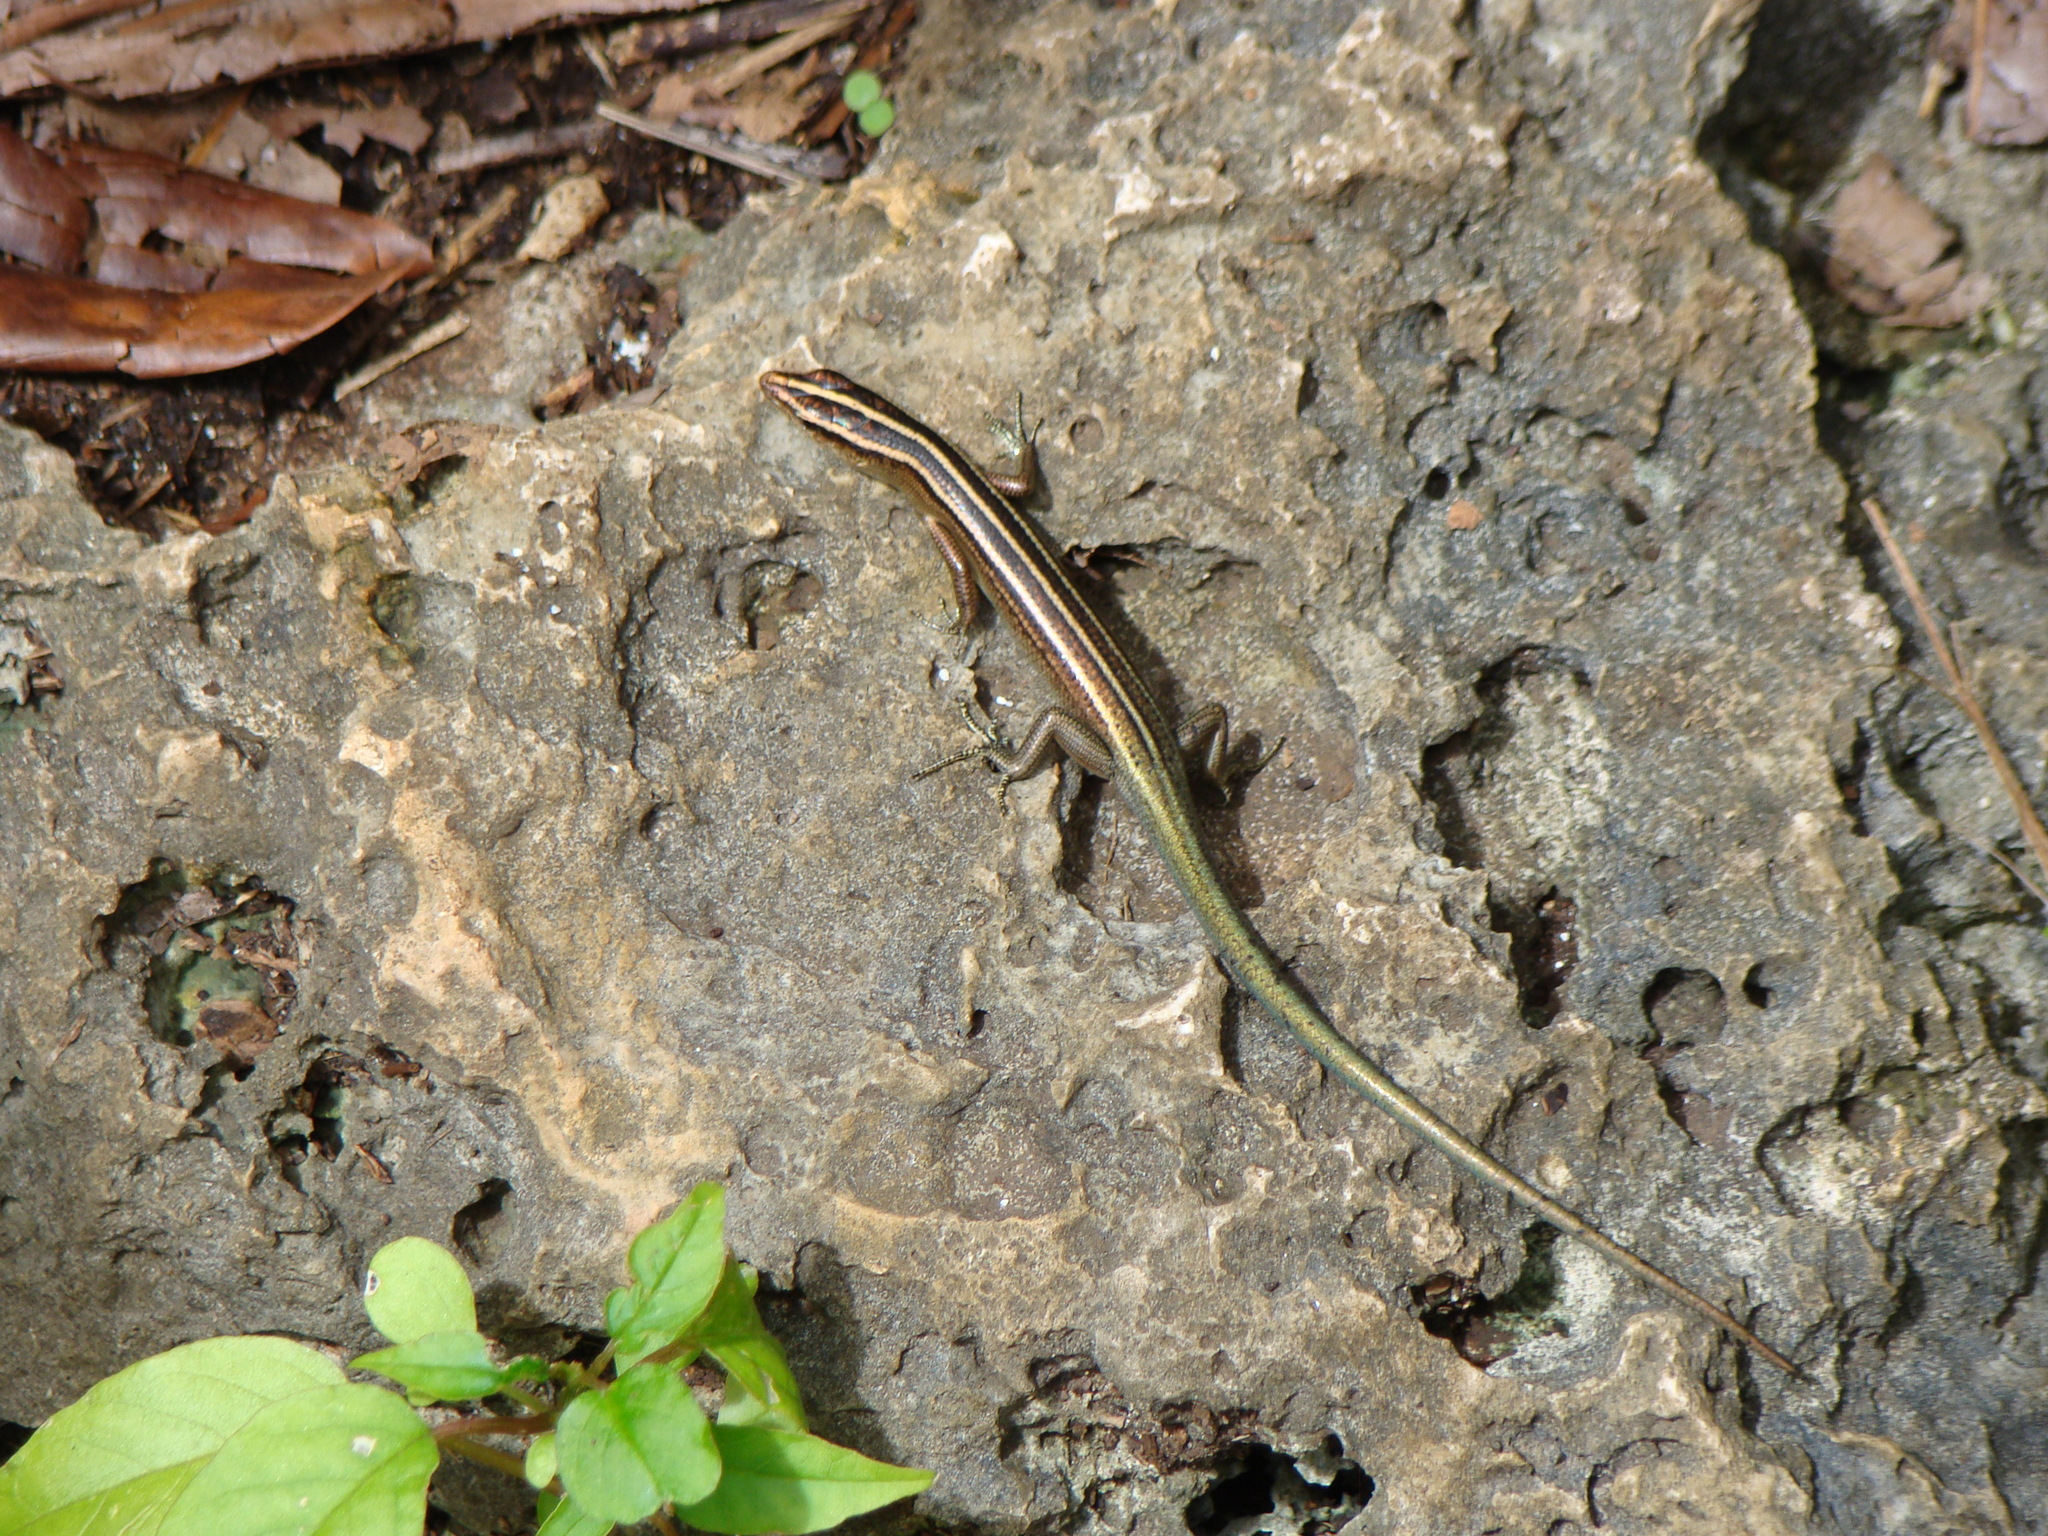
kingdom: Animalia
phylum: Chordata
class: Squamata
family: Scincidae
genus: Emoia
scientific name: Emoia cyanura
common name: Copper-tailed skink
